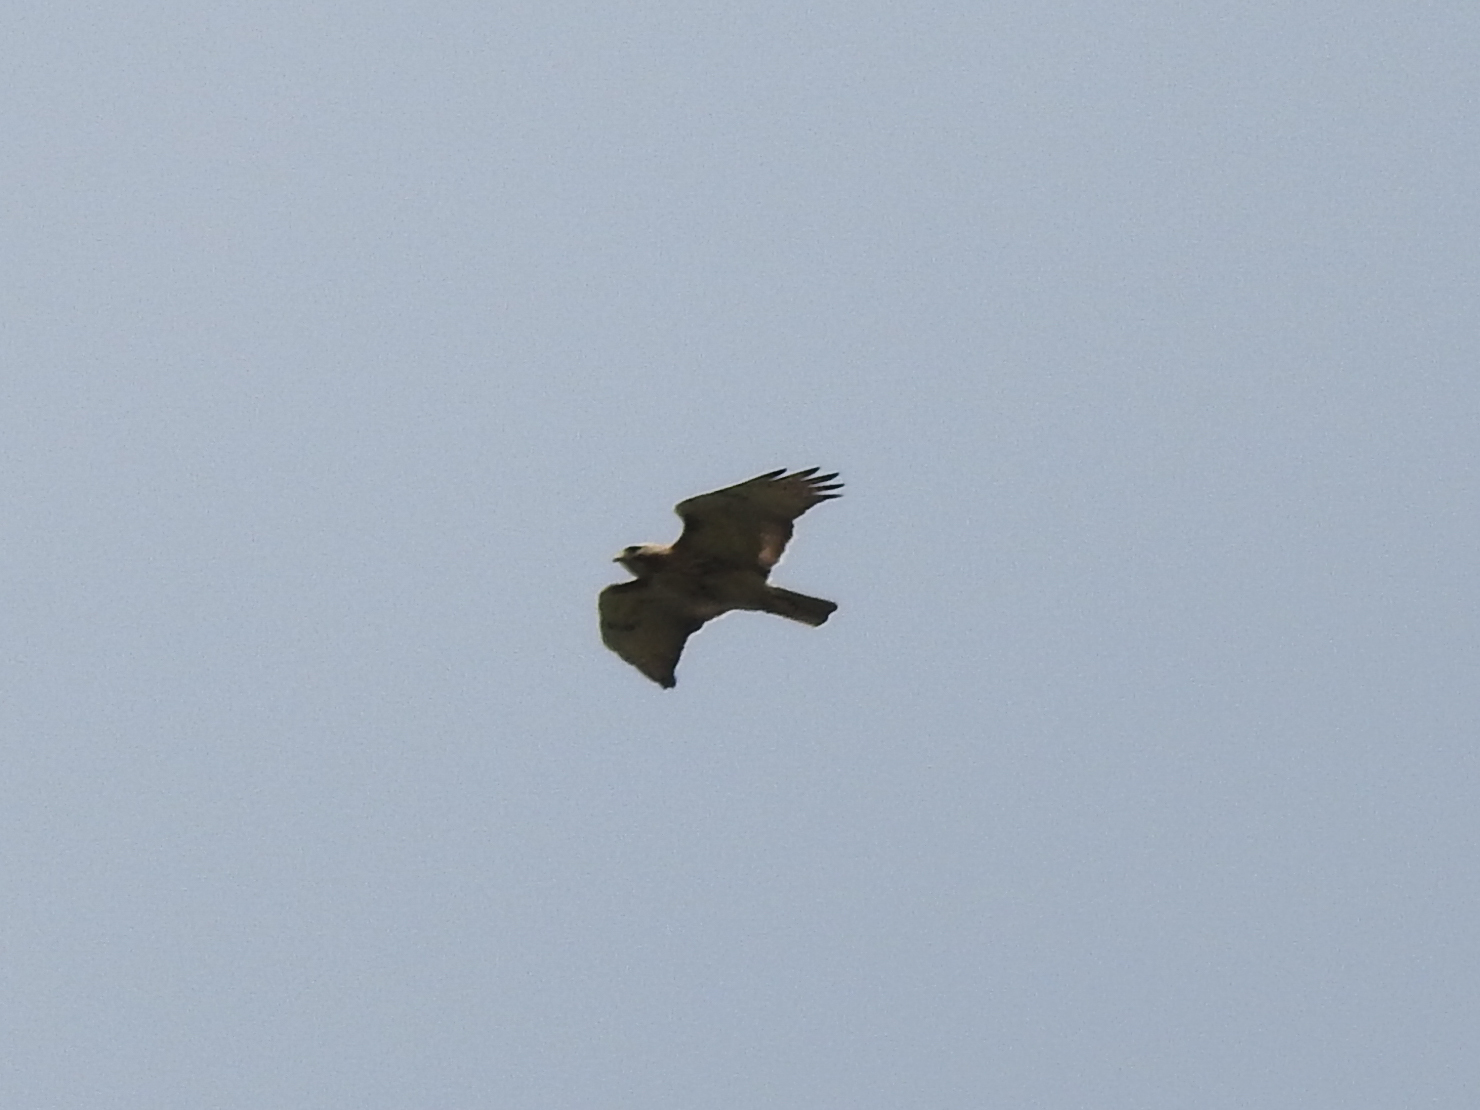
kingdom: Animalia
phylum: Chordata
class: Aves
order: Accipitriformes
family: Accipitridae
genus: Buteo
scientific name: Buteo jamaicensis
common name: Red-tailed hawk
